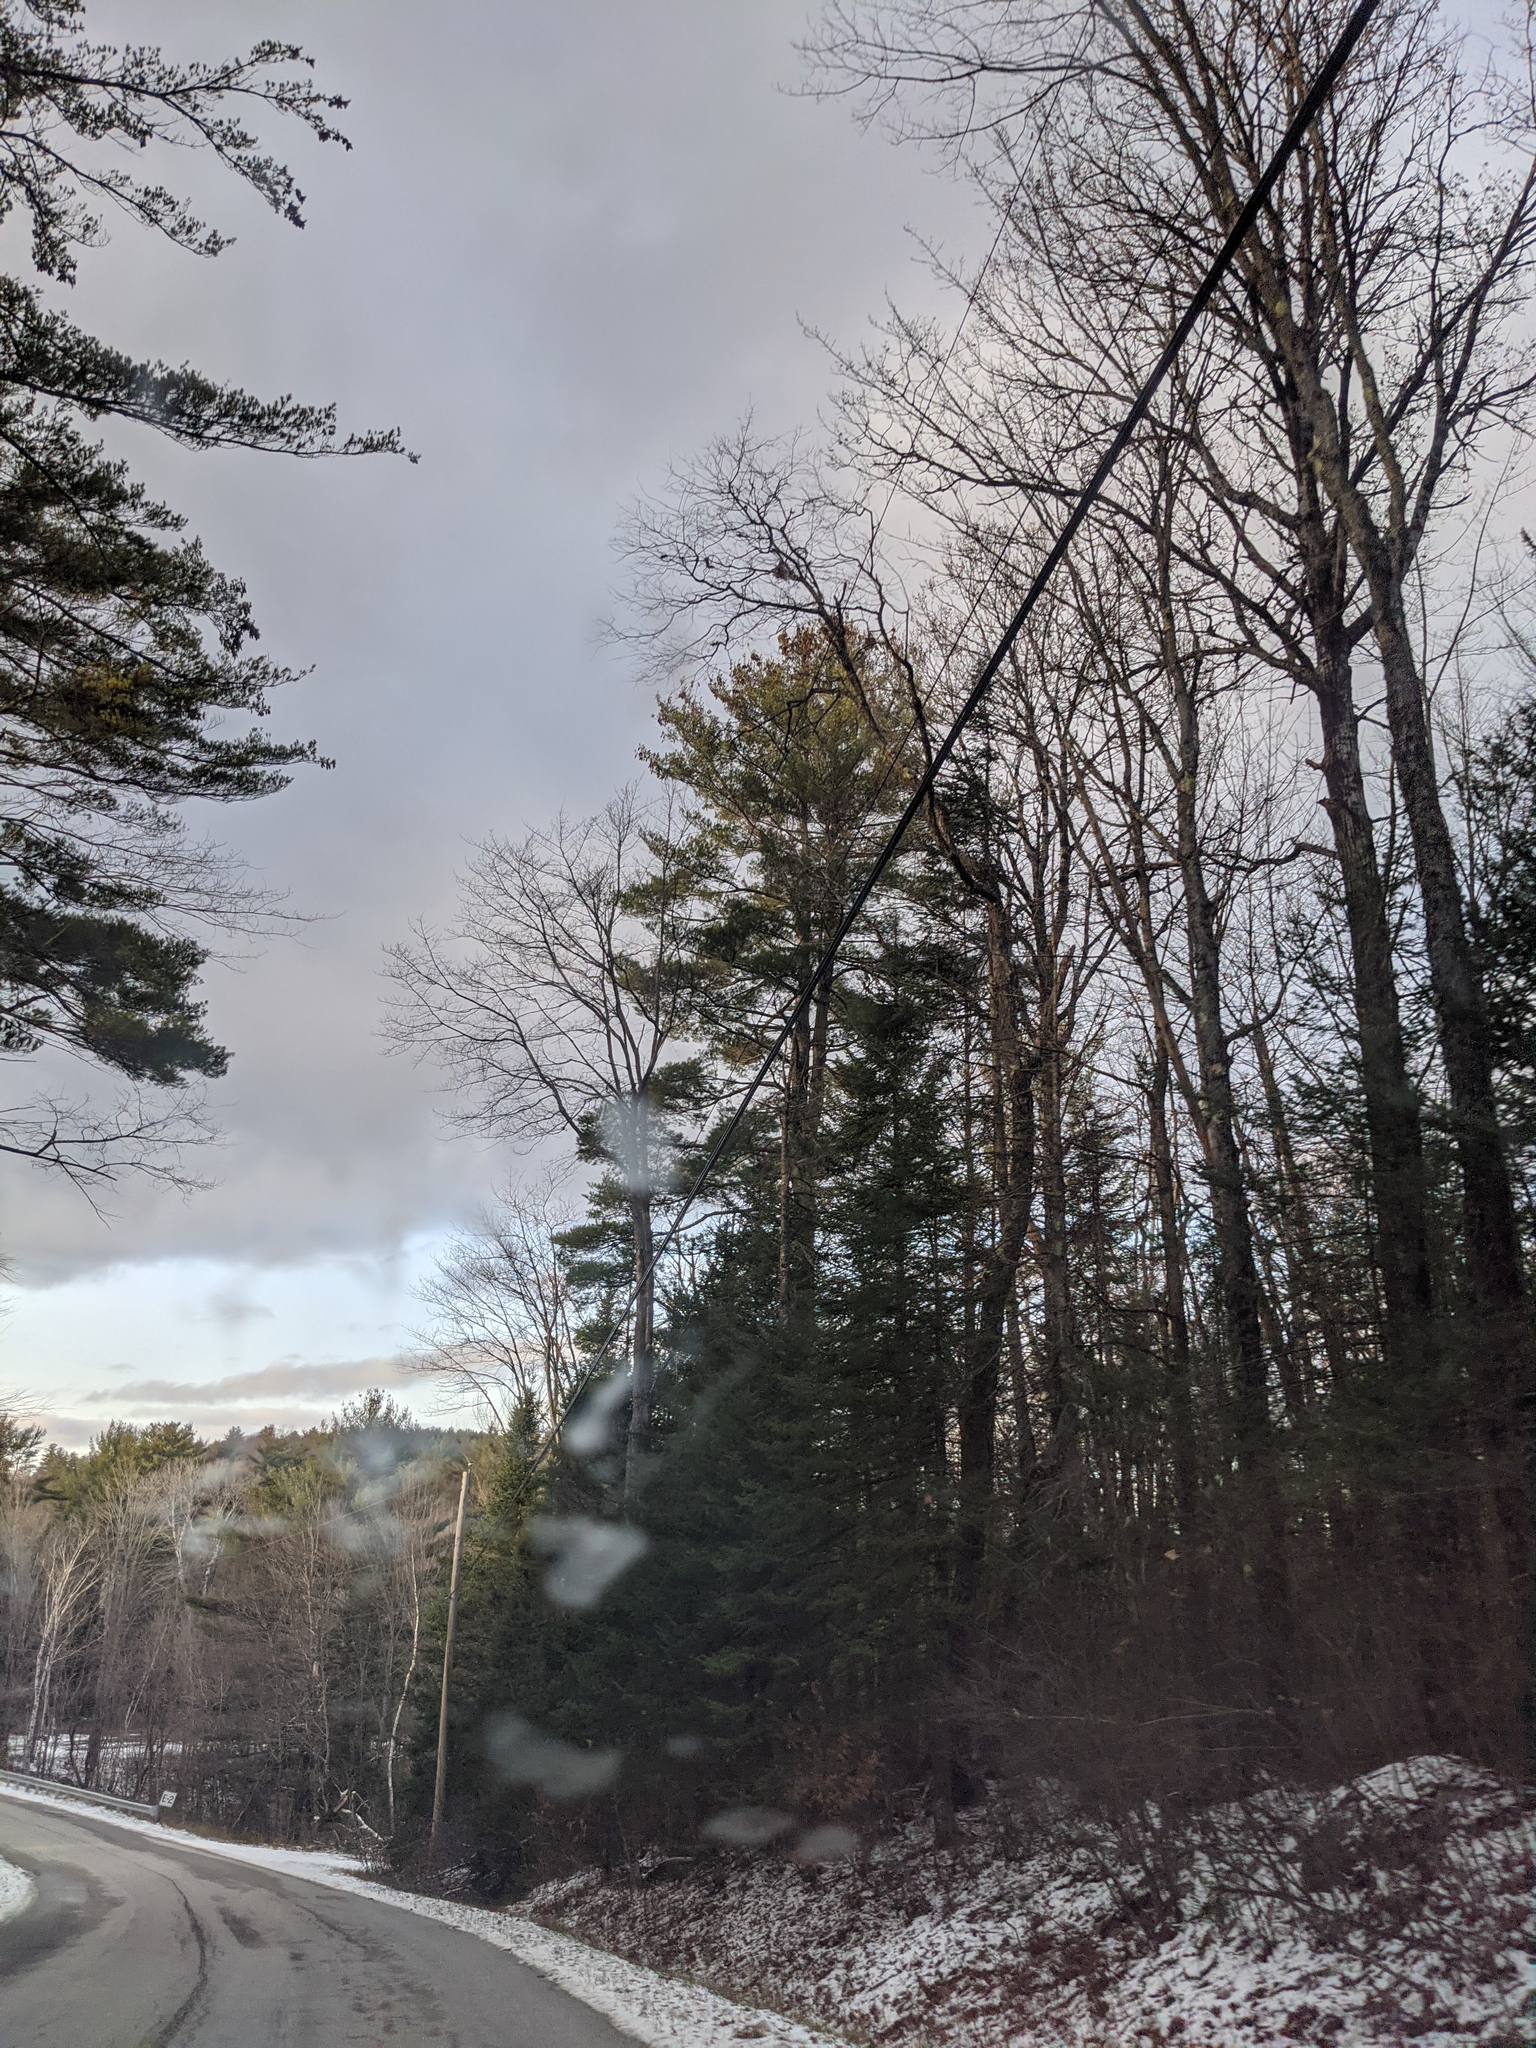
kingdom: Plantae
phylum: Tracheophyta
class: Pinopsida
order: Pinales
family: Pinaceae
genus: Pinus
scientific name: Pinus strobus
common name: Weymouth pine
